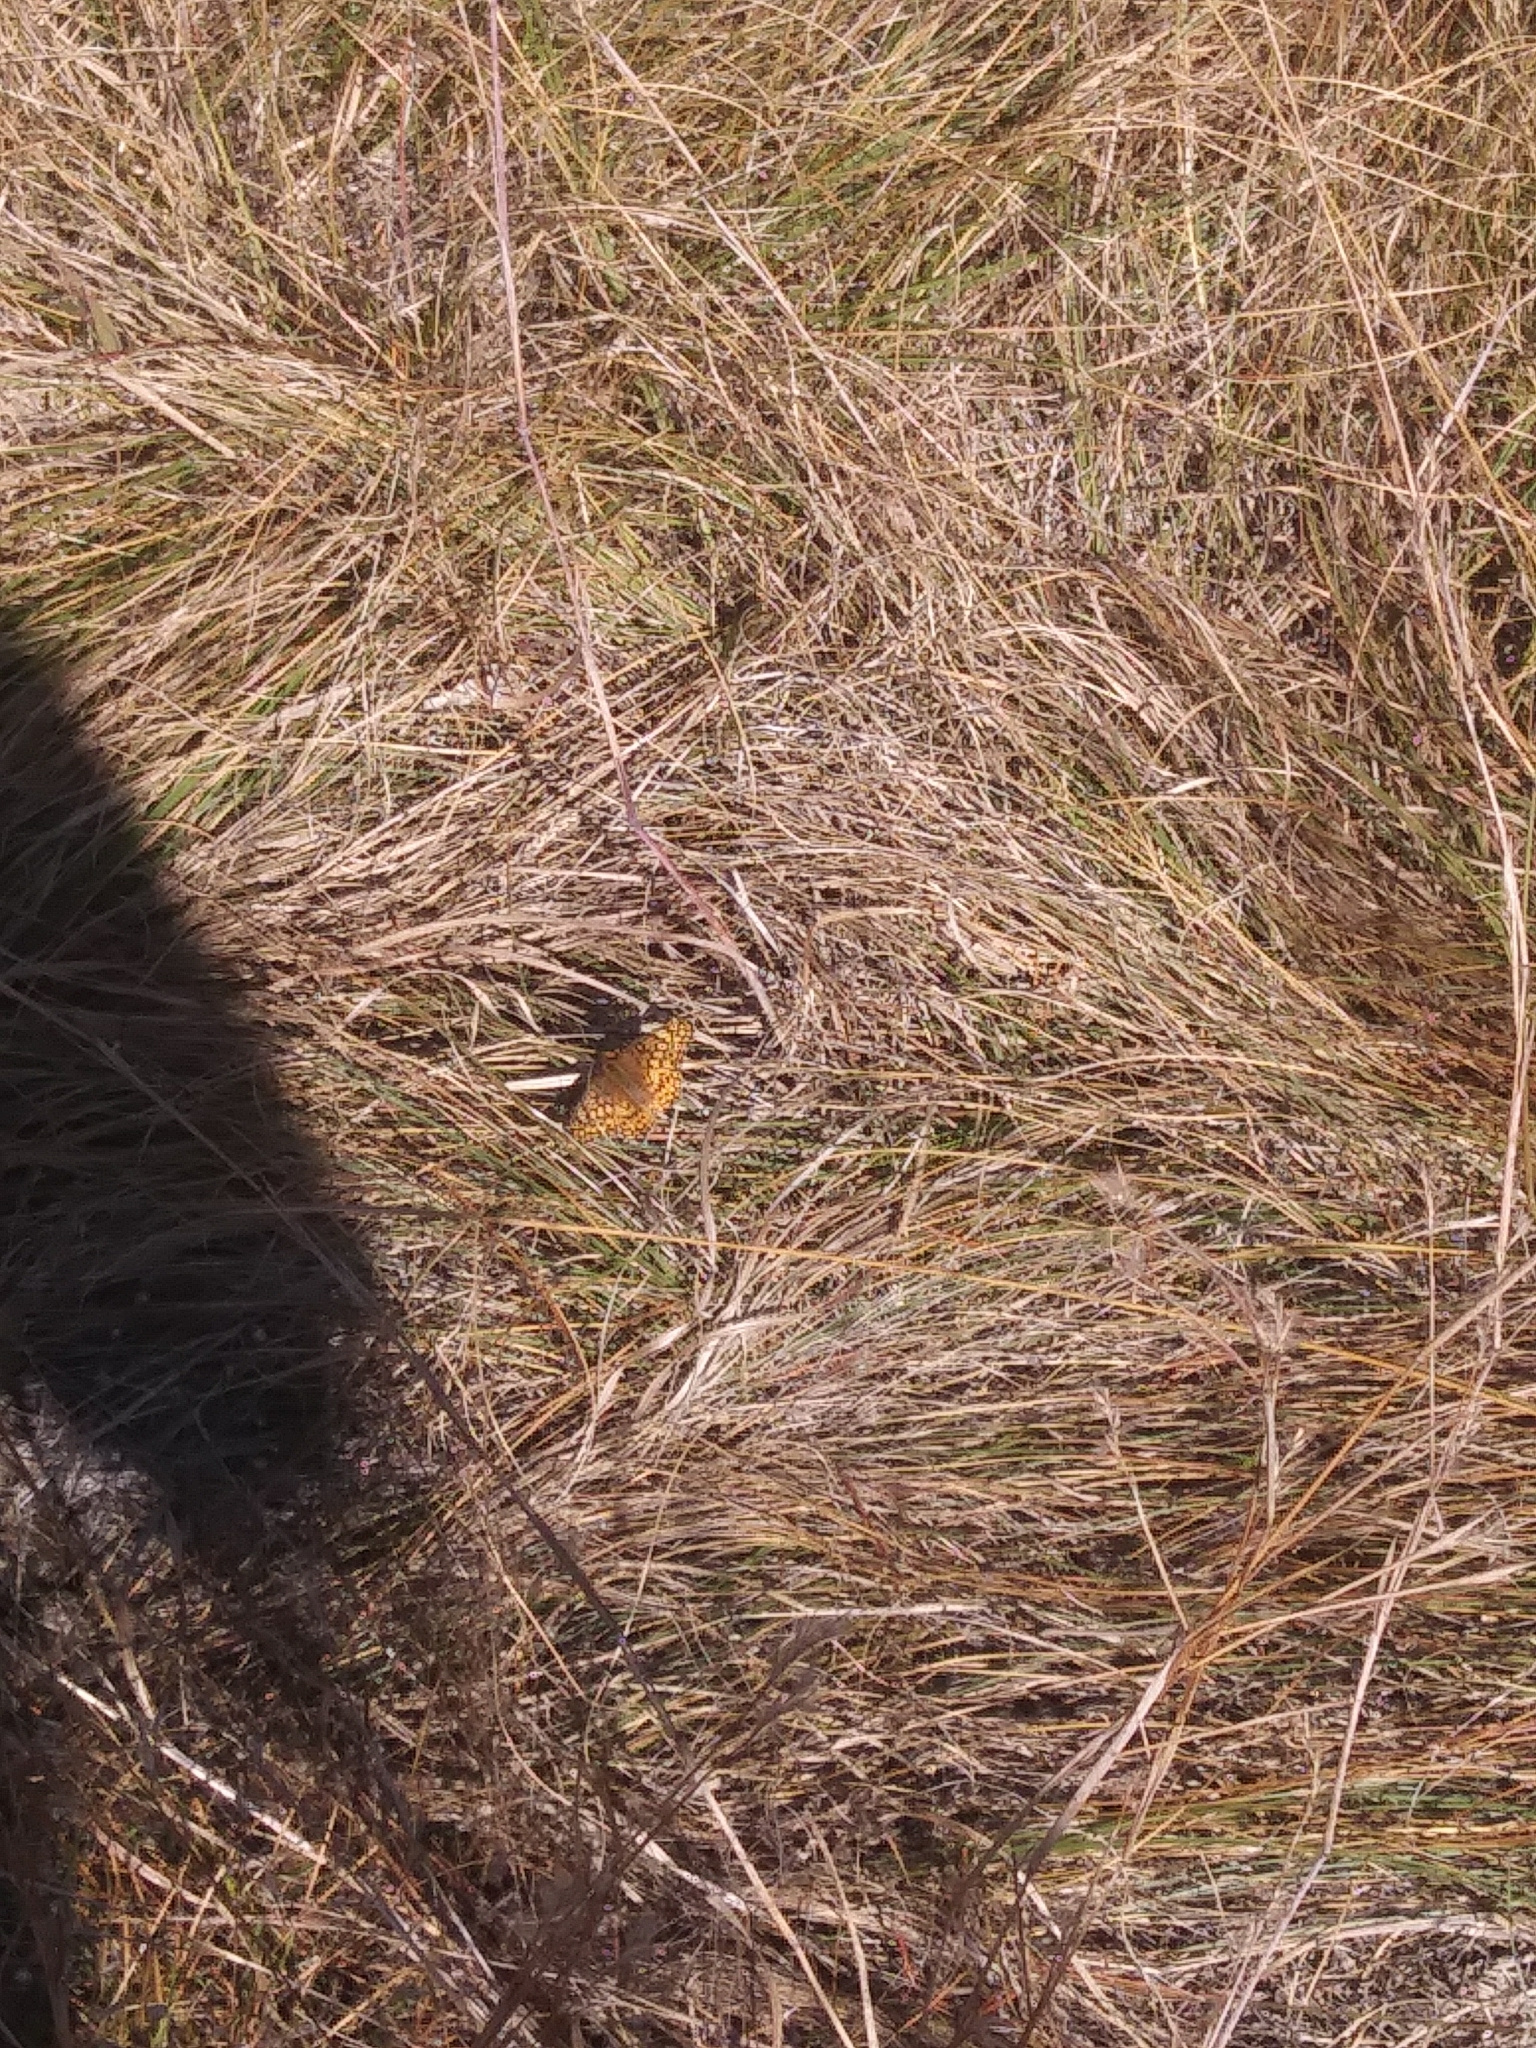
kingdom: Animalia
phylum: Arthropoda
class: Insecta
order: Lepidoptera
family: Nymphalidae
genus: Euptoieta
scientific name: Euptoieta claudia
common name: Variegated fritillary
